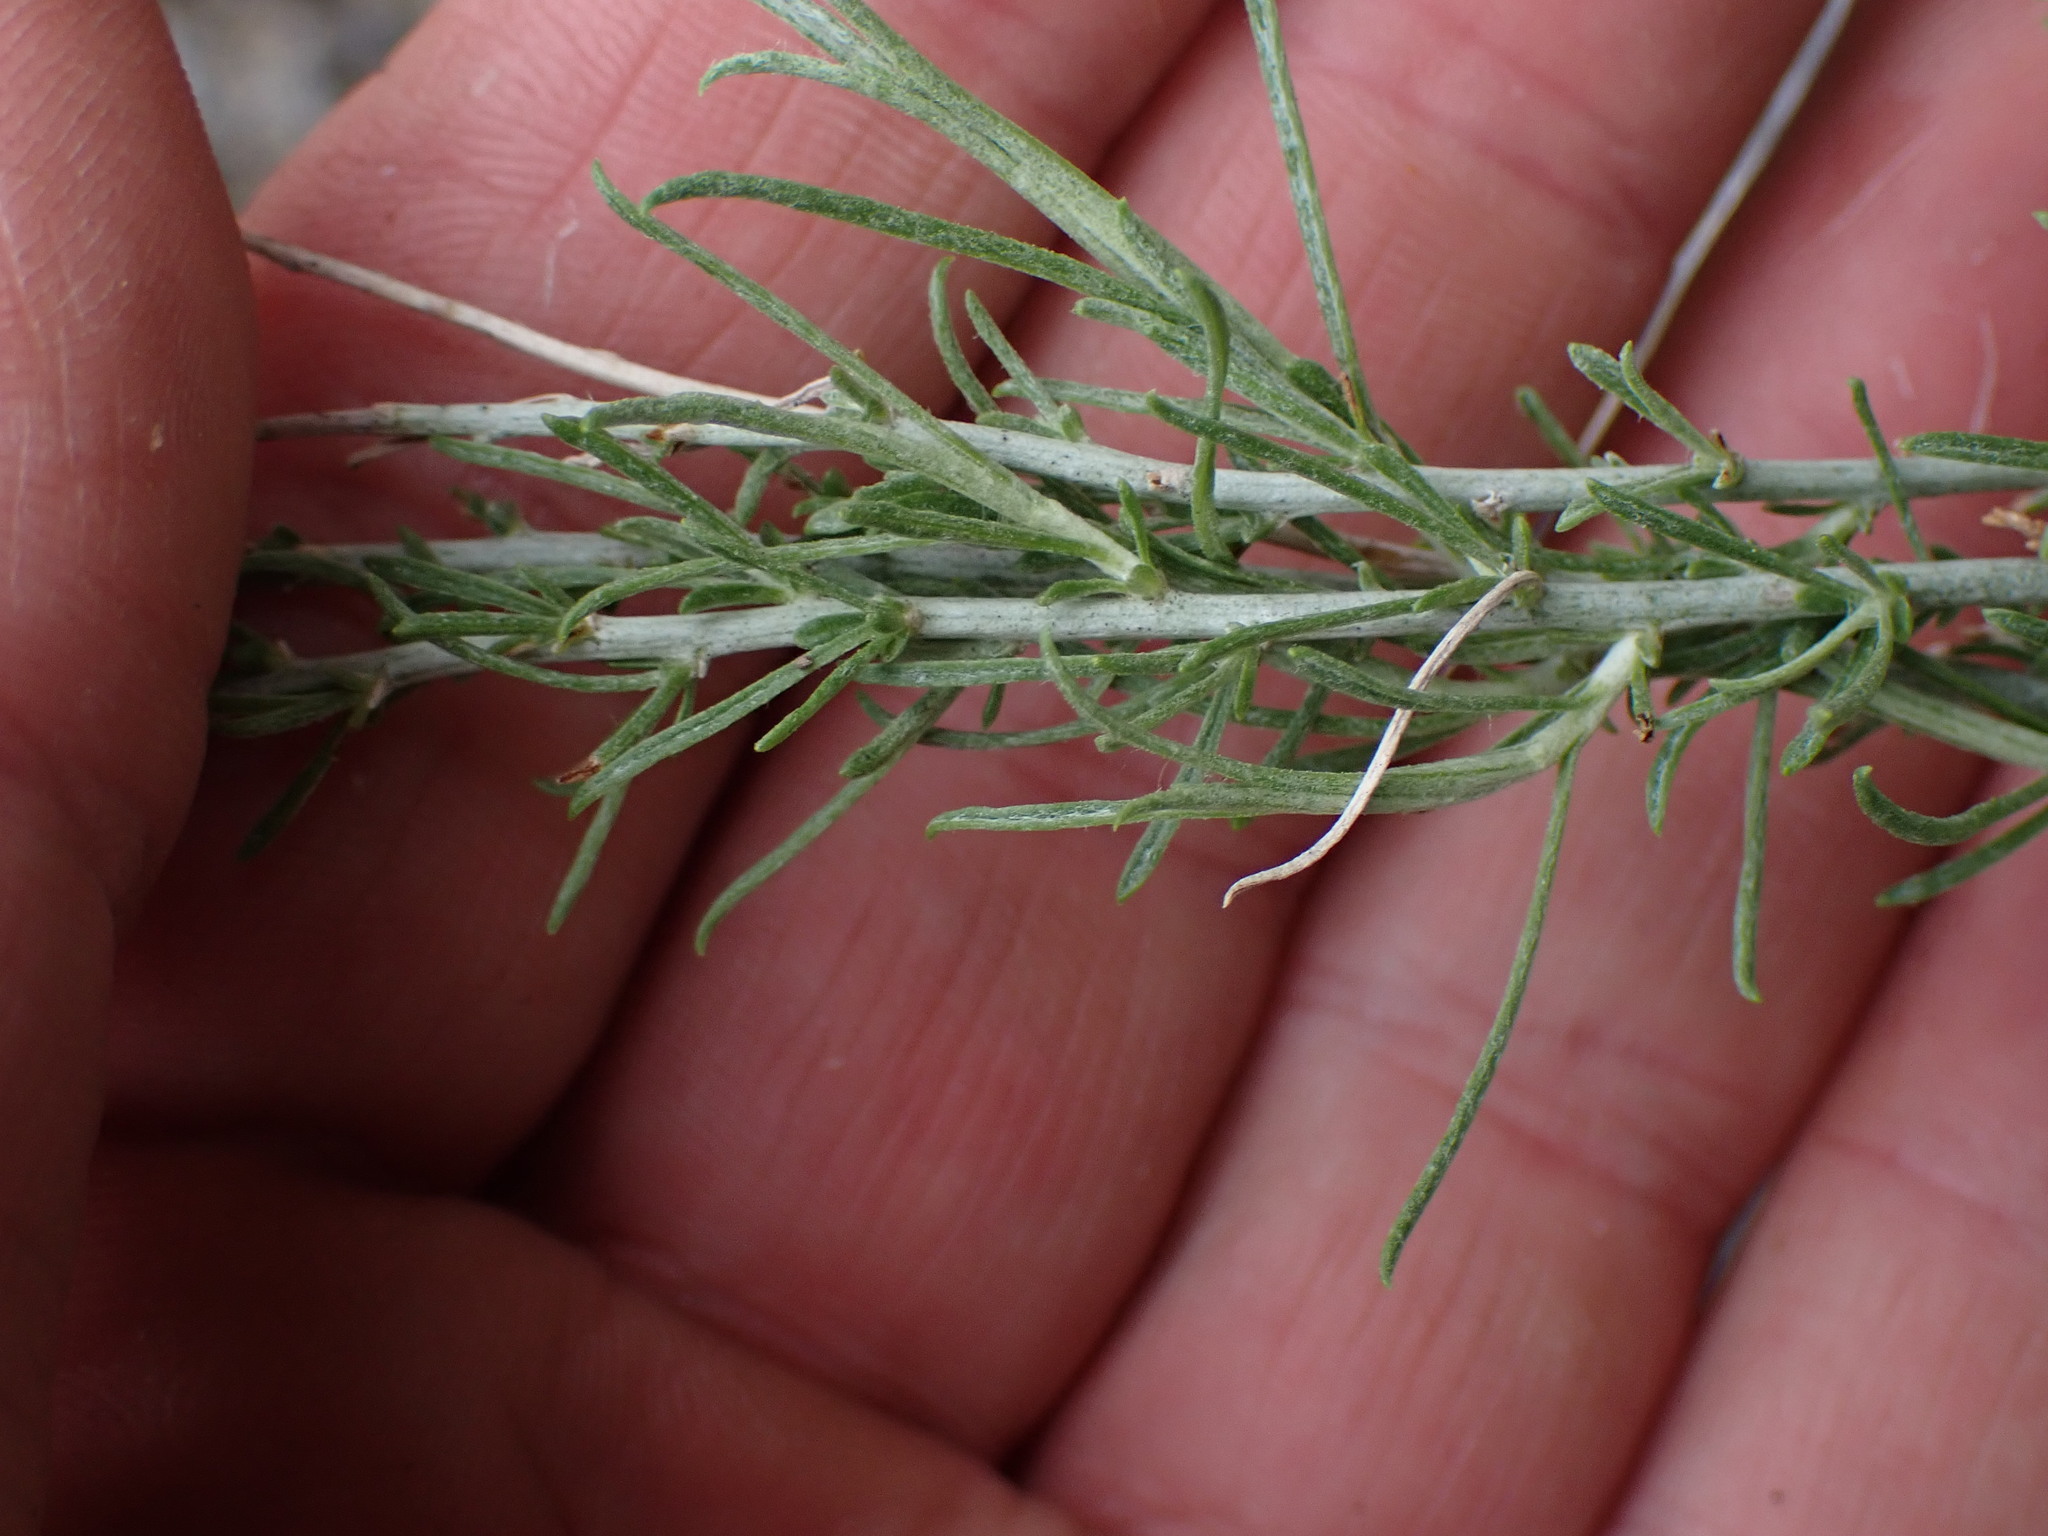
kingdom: Plantae
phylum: Tracheophyta
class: Magnoliopsida
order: Asterales
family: Asteraceae
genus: Ericameria
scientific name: Ericameria nauseosa
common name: Rubber rabbitbrush
